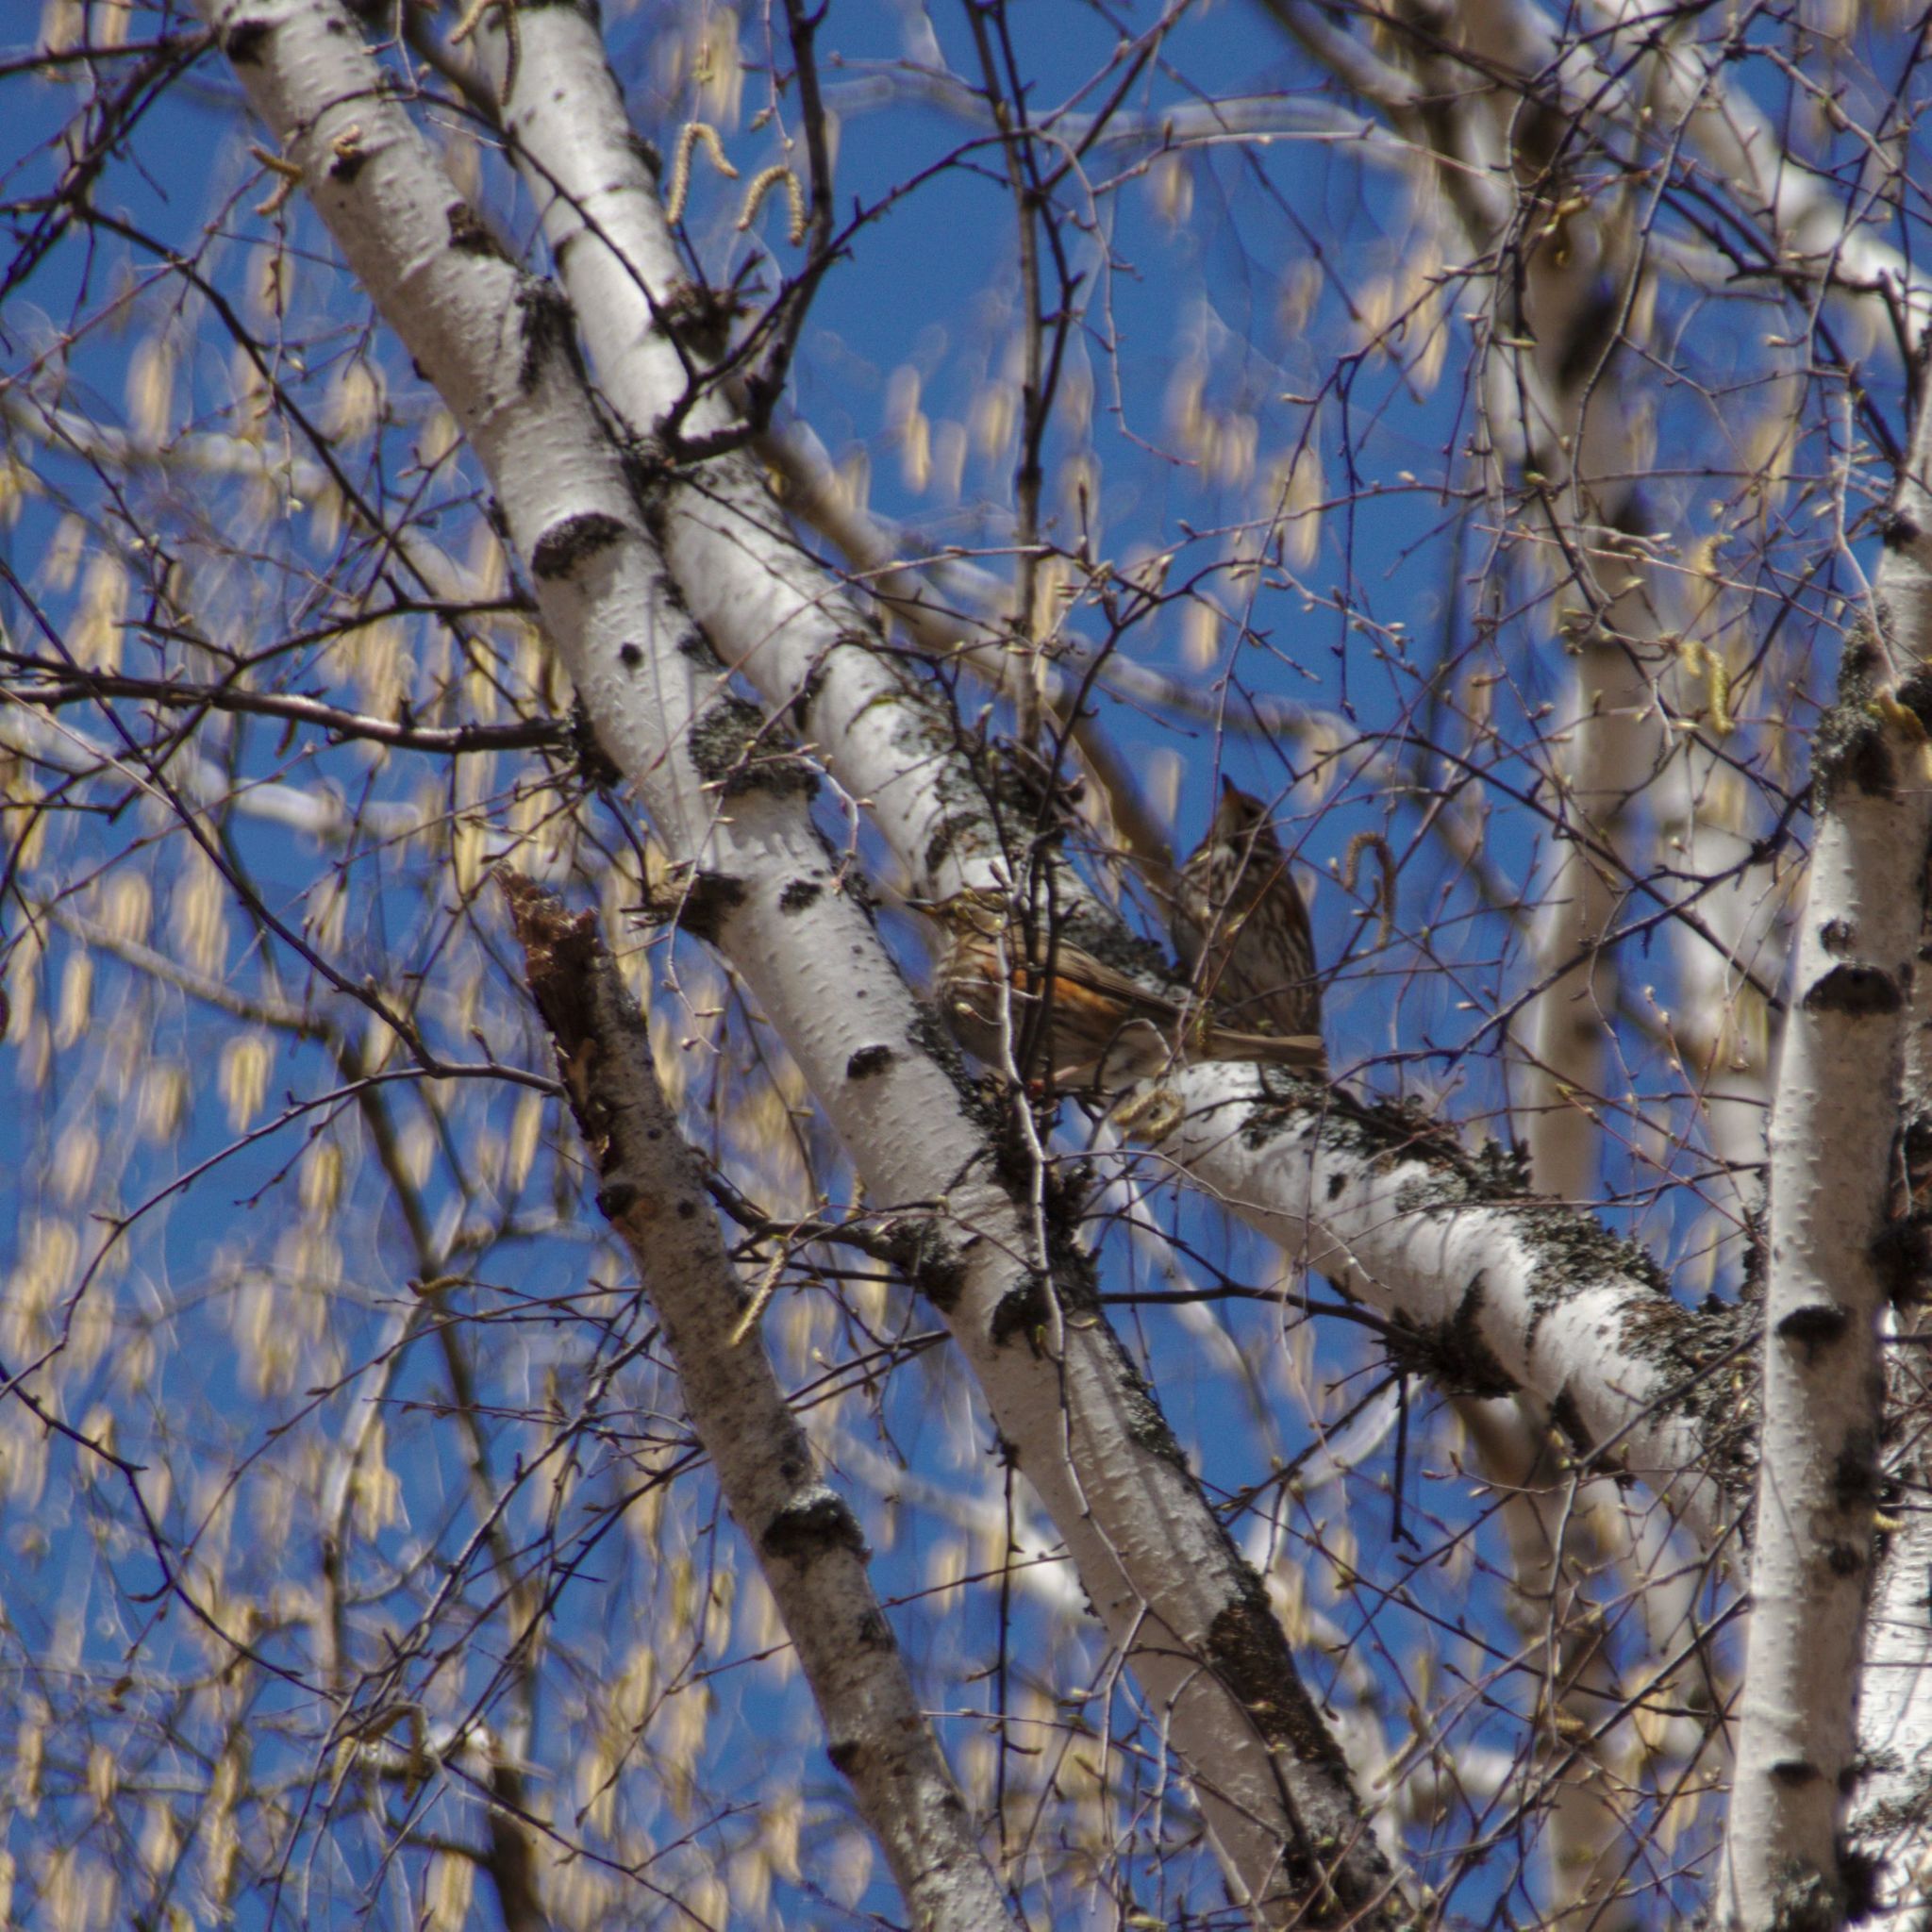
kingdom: Animalia
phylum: Chordata
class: Aves
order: Passeriformes
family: Turdidae
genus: Turdus
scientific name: Turdus iliacus
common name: Redwing
